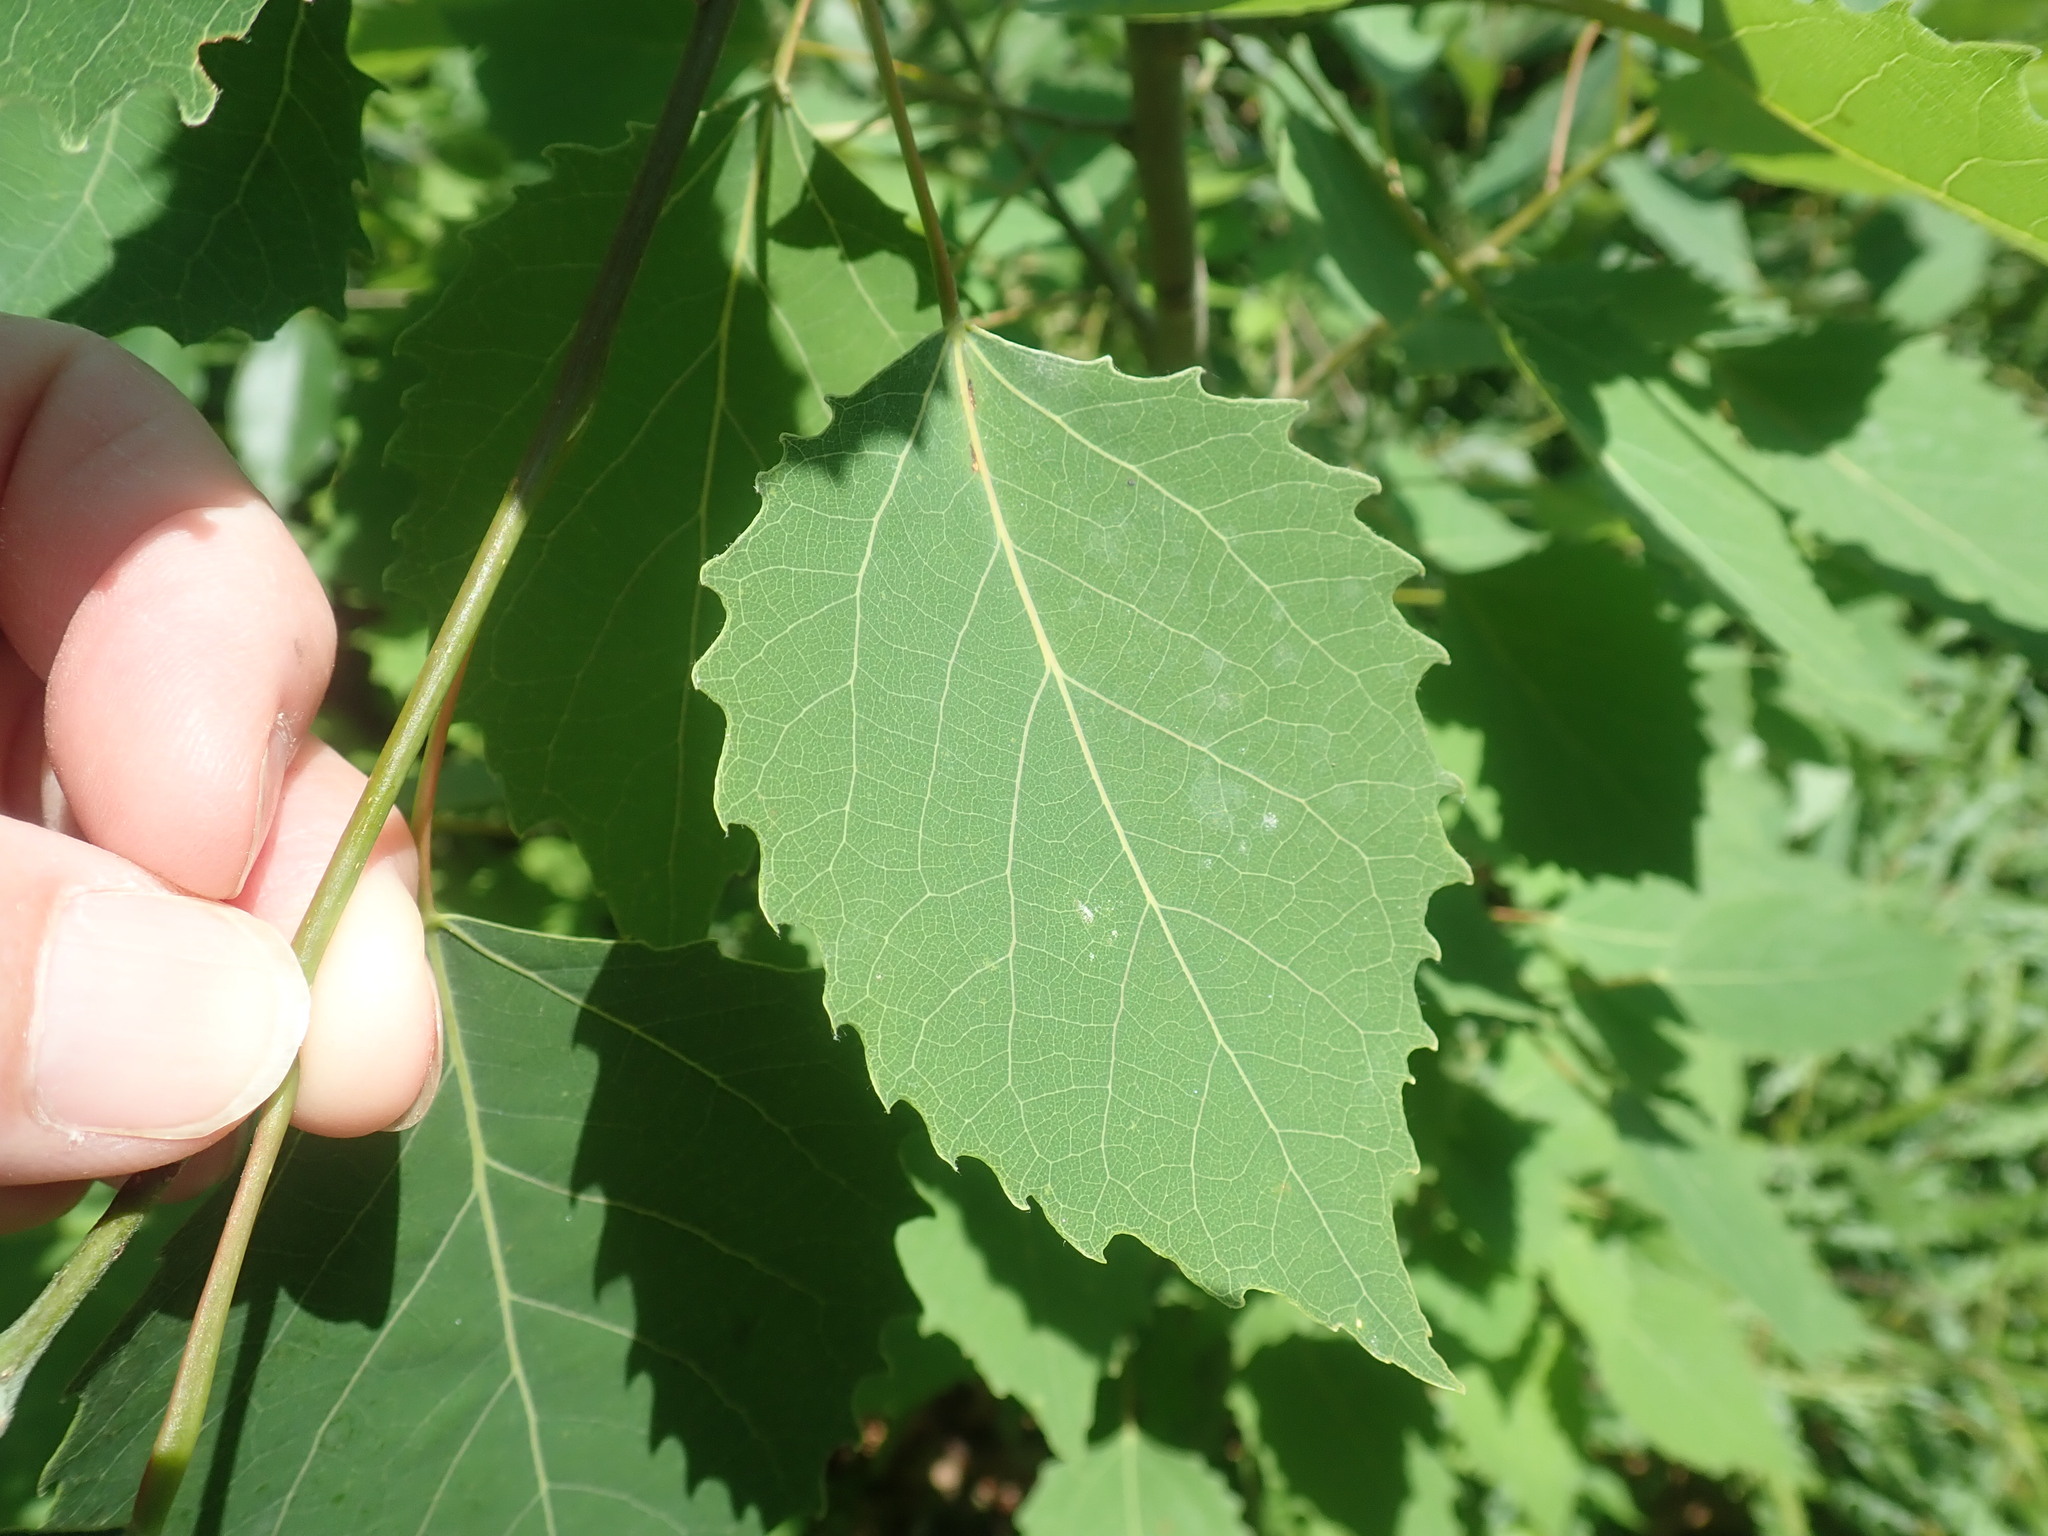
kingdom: Plantae
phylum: Tracheophyta
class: Magnoliopsida
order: Malpighiales
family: Salicaceae
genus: Populus
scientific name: Populus grandidentata
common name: Bigtooth aspen
